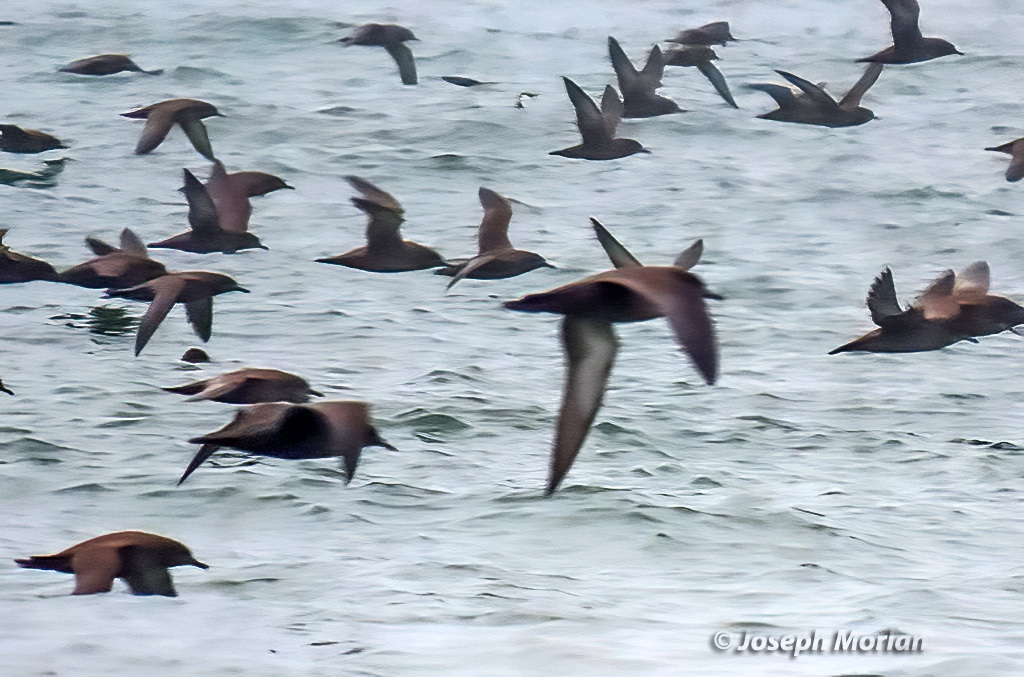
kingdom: Animalia
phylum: Chordata
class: Aves
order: Procellariiformes
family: Procellariidae
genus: Puffinus
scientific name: Puffinus griseus
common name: Sooty shearwater
